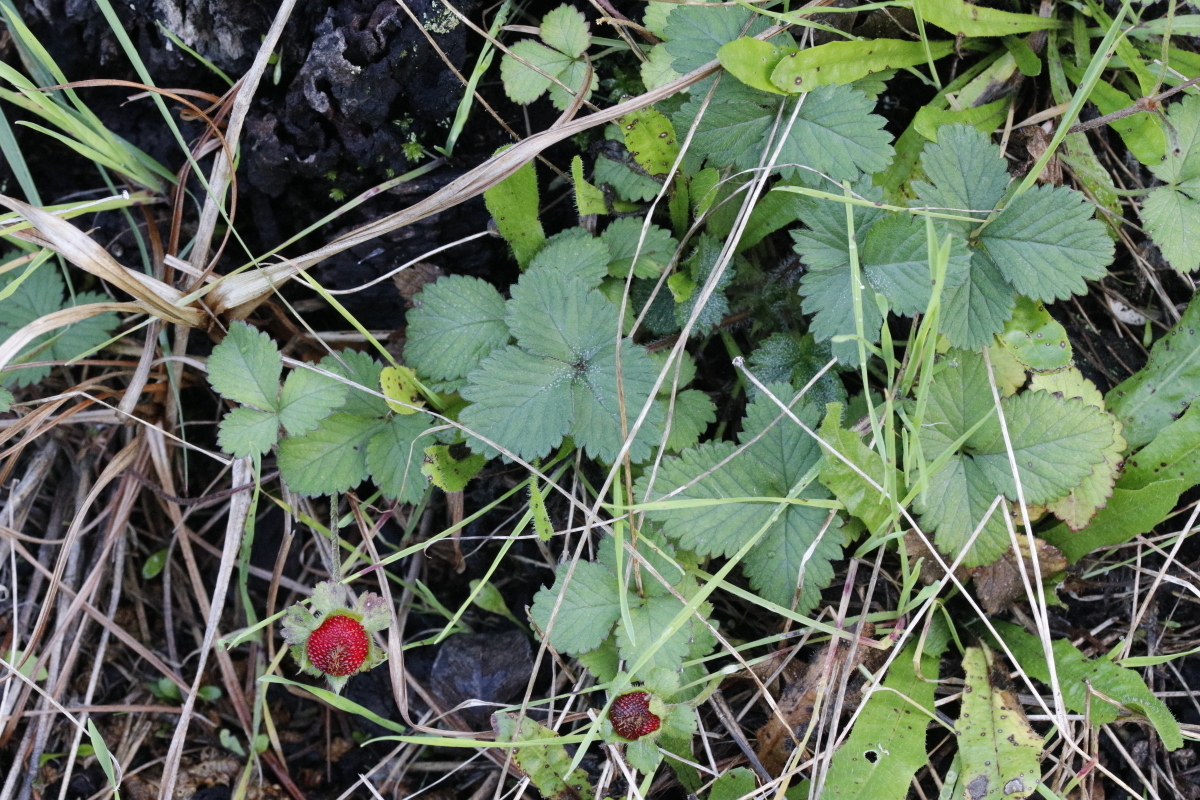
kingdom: Plantae
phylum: Tracheophyta
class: Magnoliopsida
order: Rosales
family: Rosaceae
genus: Potentilla
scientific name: Potentilla indica
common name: Yellow-flowered strawberry
